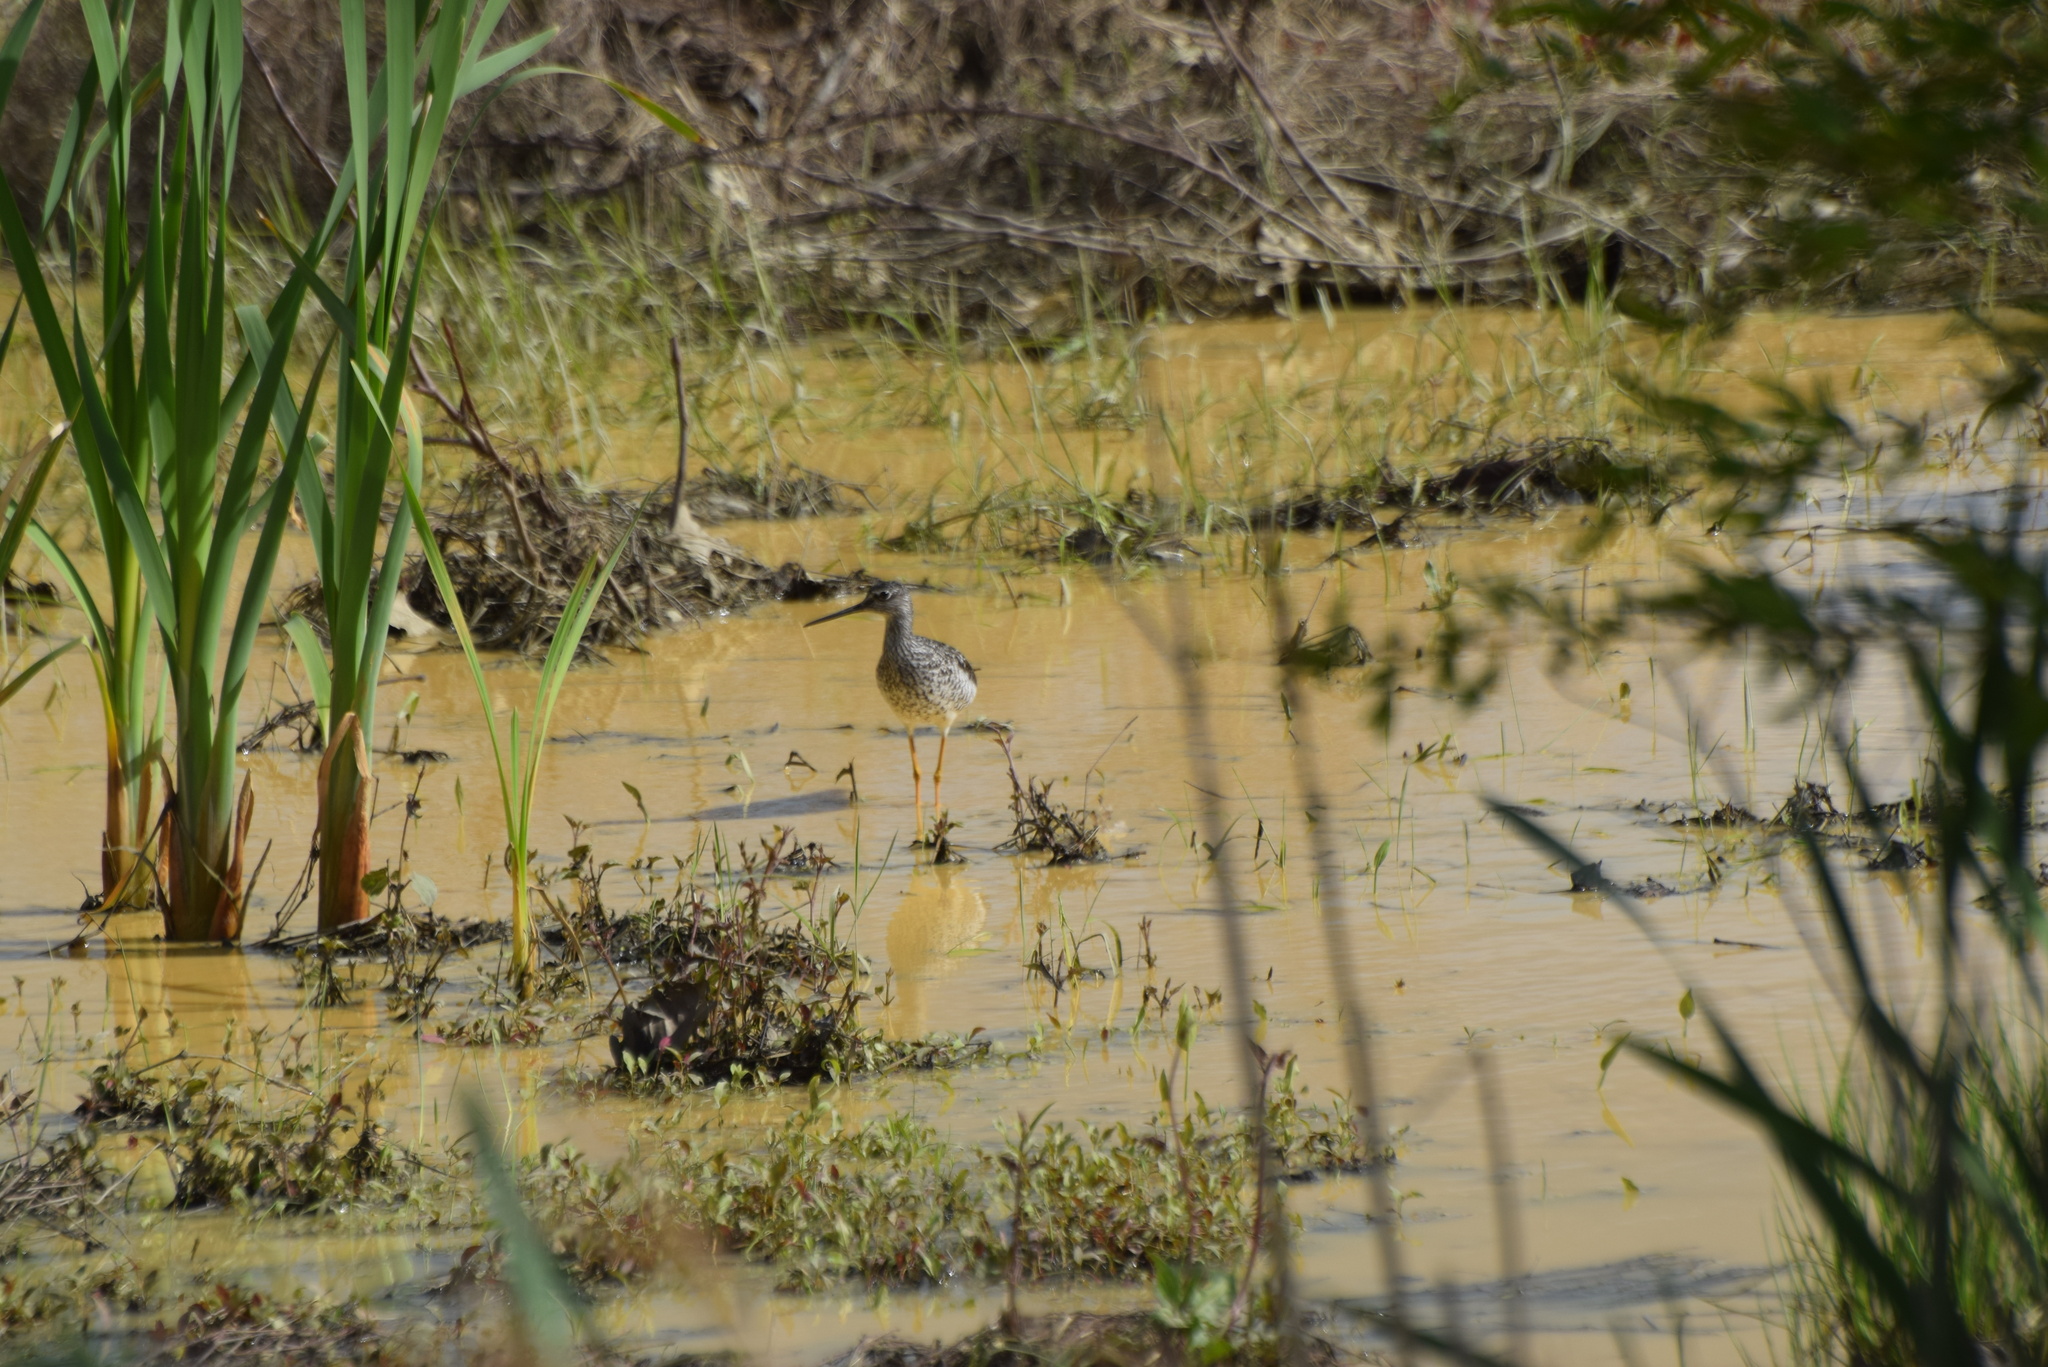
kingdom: Animalia
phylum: Chordata
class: Aves
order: Charadriiformes
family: Scolopacidae
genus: Tringa
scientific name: Tringa melanoleuca
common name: Greater yellowlegs
